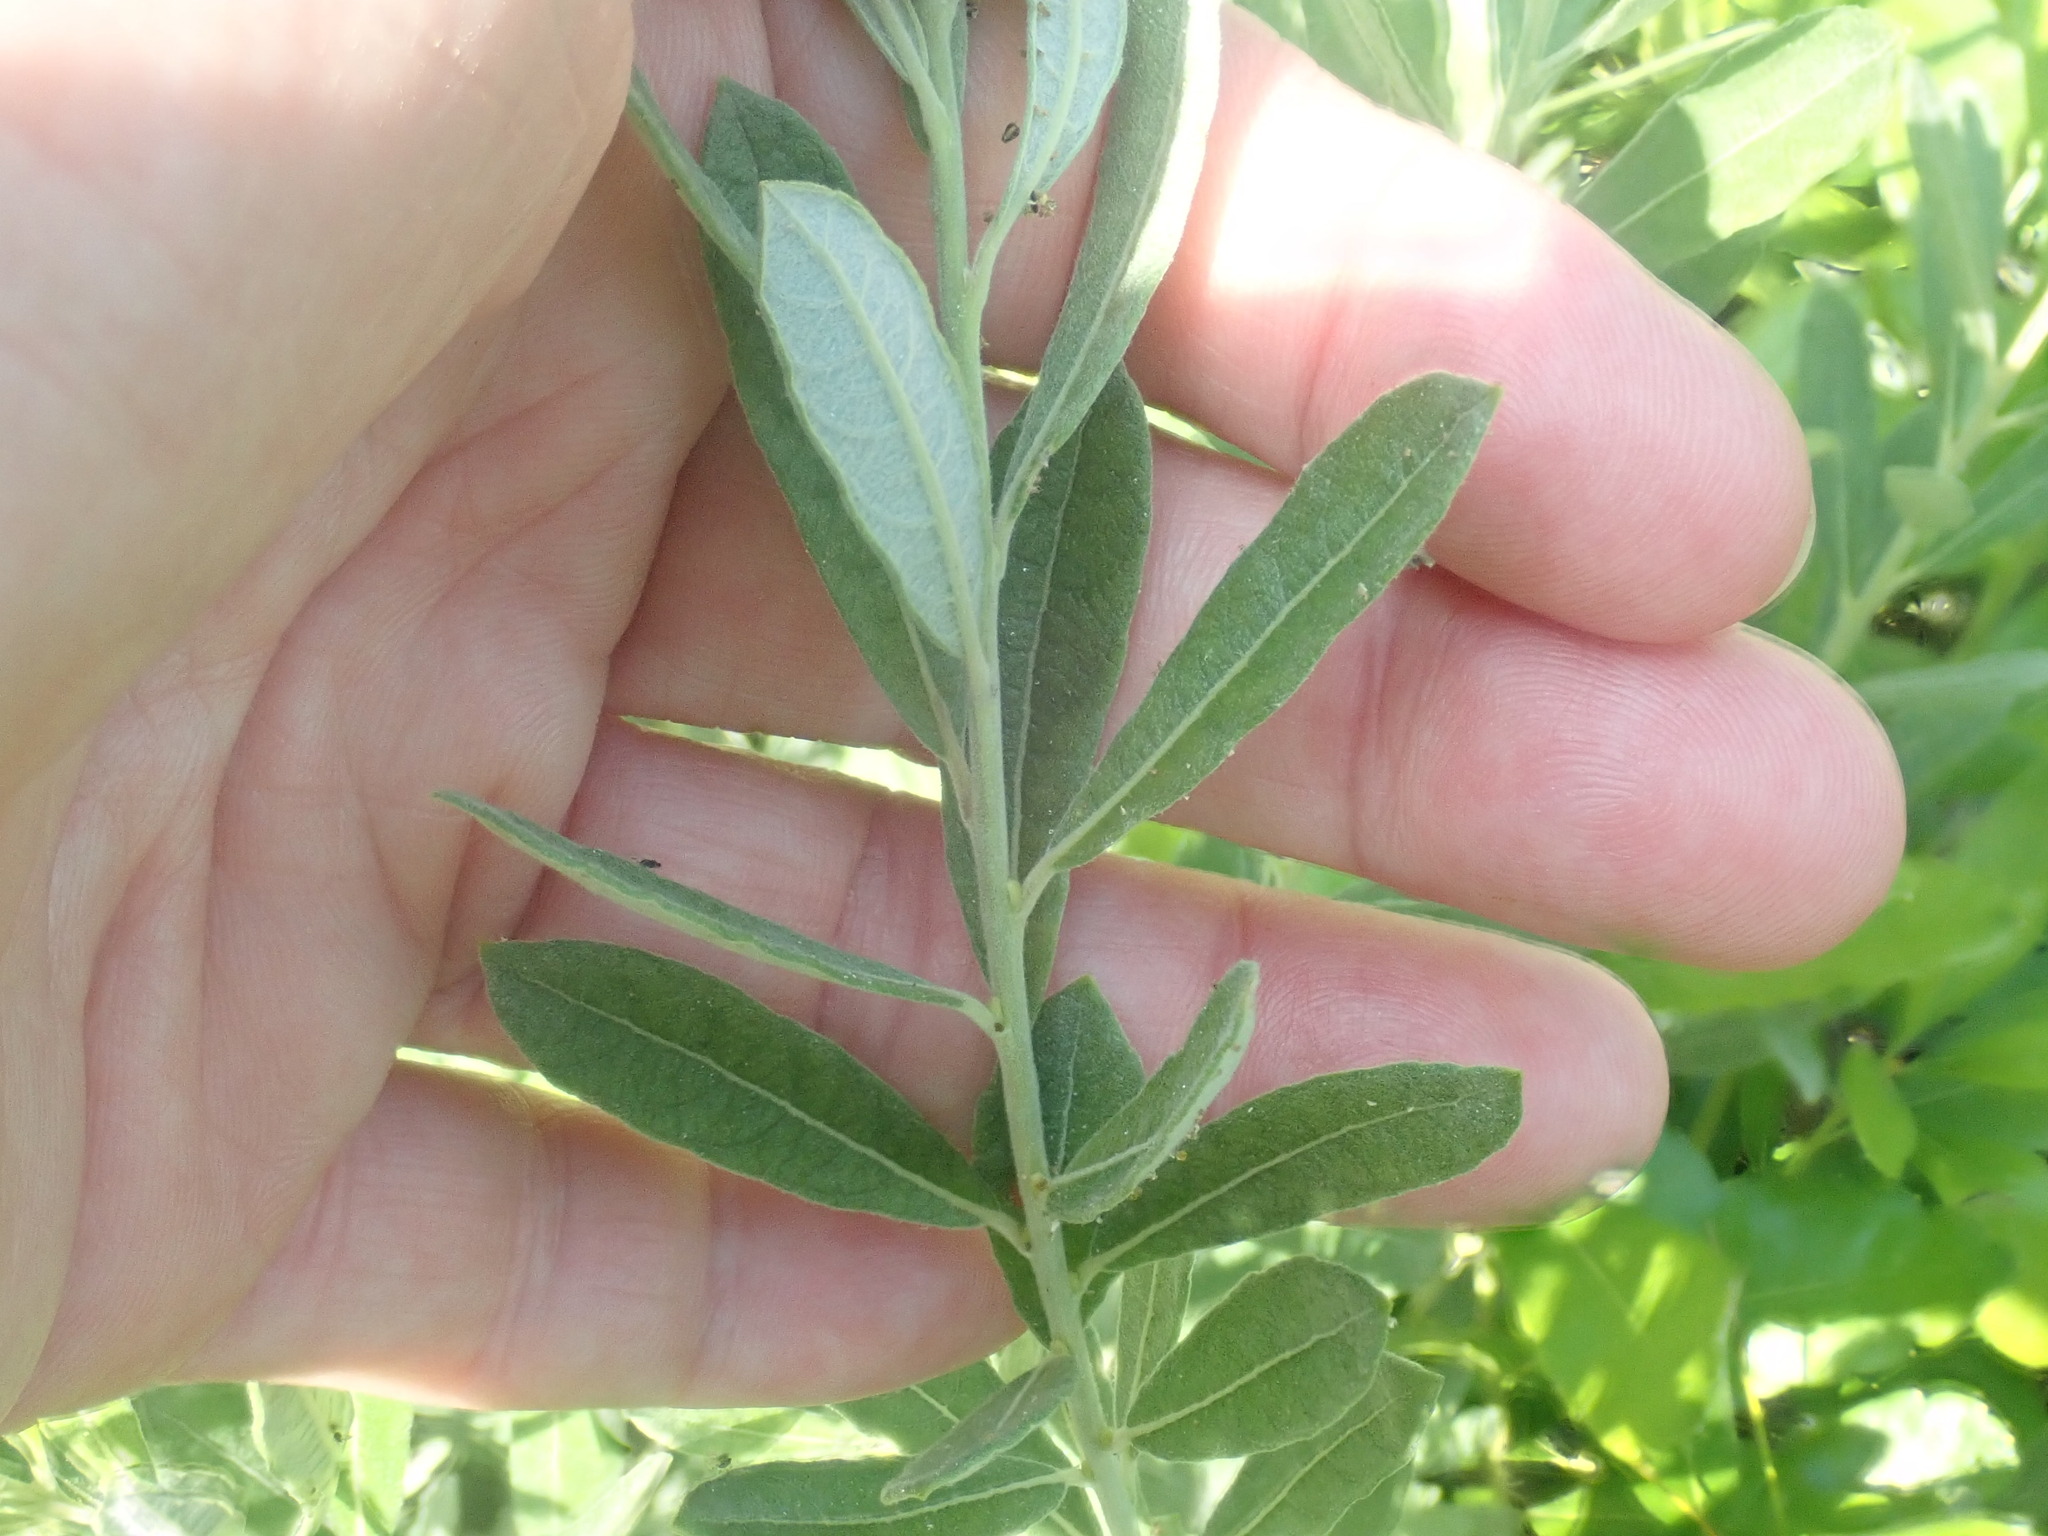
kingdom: Plantae
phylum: Tracheophyta
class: Magnoliopsida
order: Malpighiales
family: Salicaceae
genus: Salix
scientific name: Salix humilis
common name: Prairie willow
